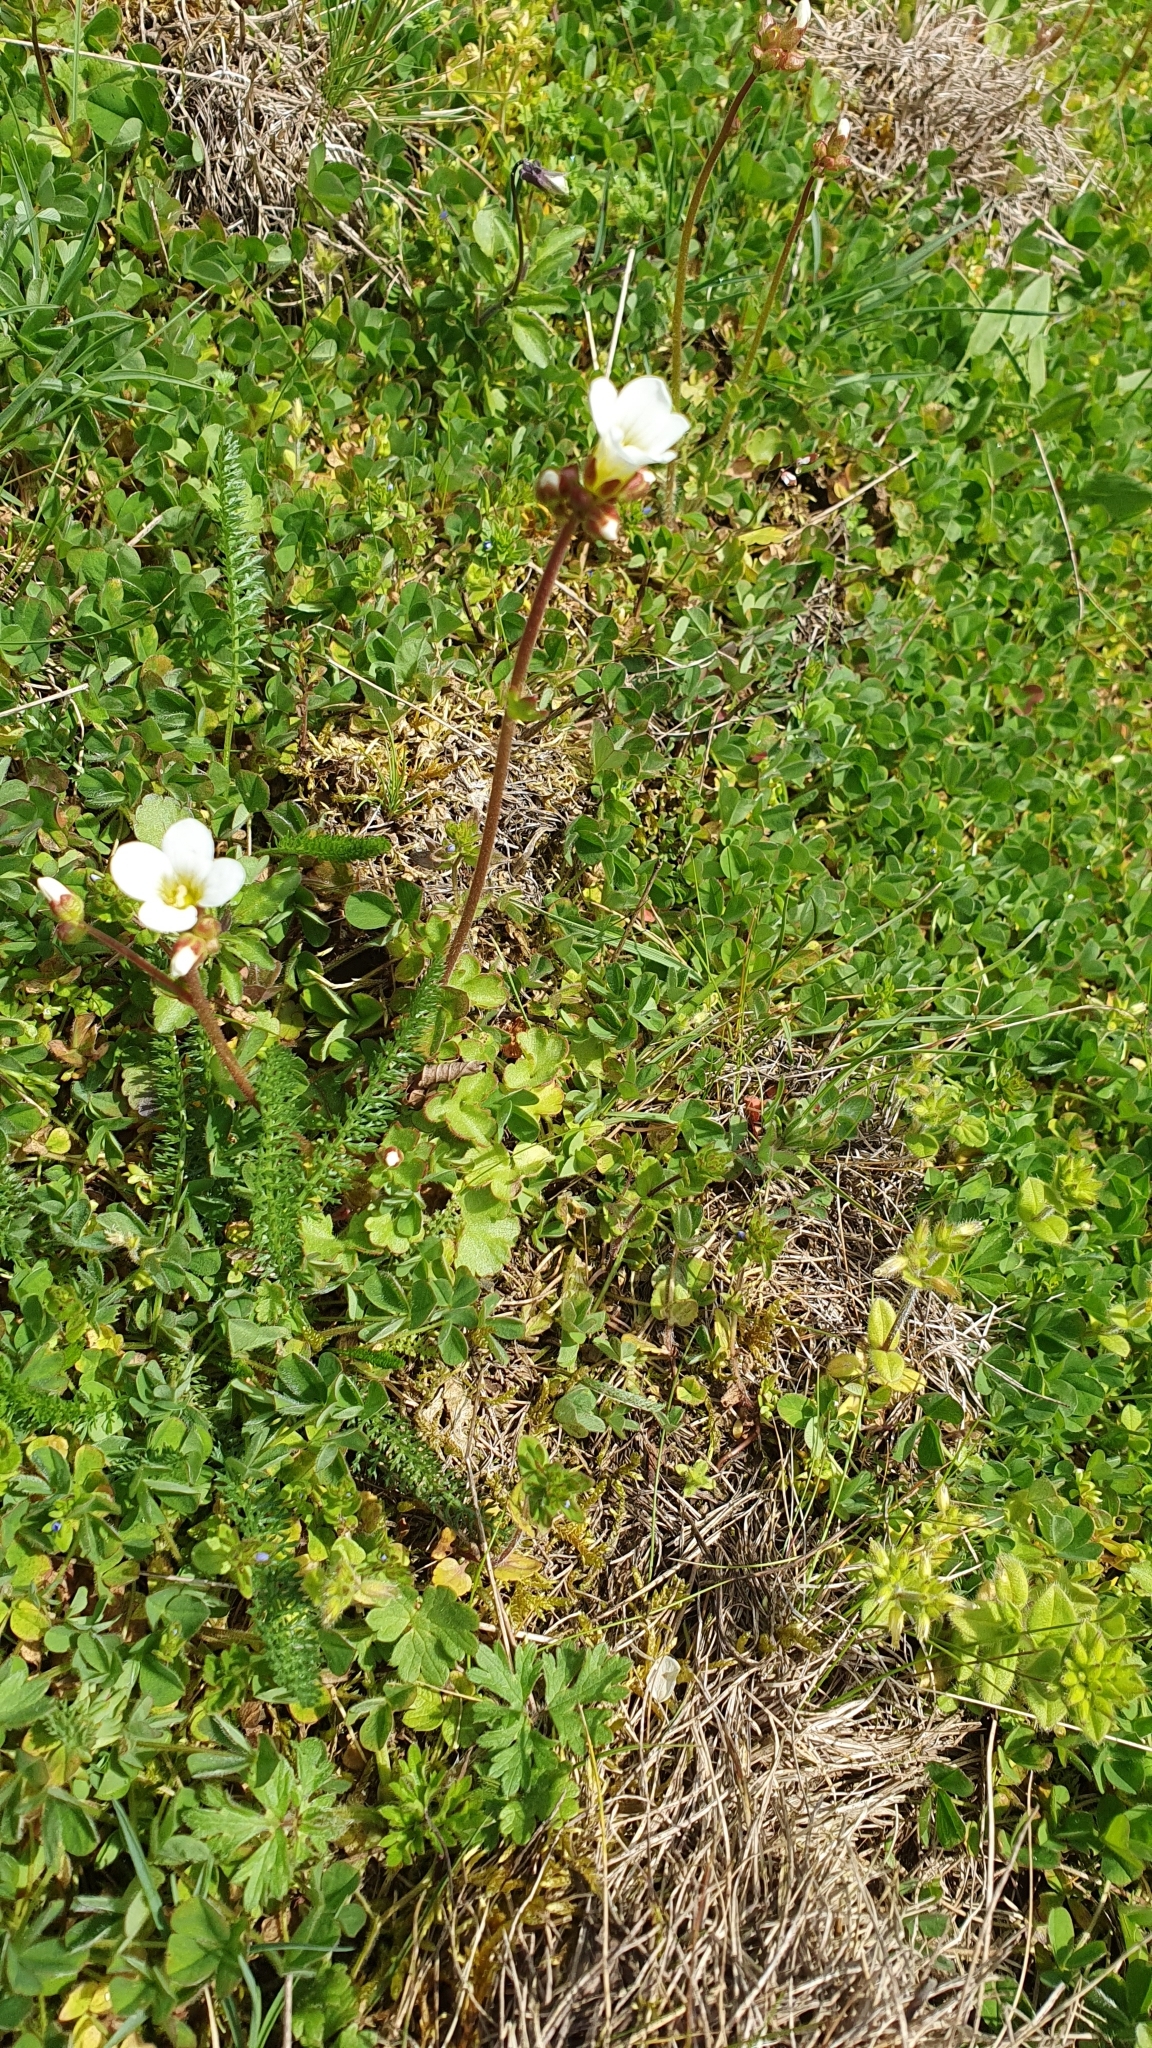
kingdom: Plantae
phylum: Tracheophyta
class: Magnoliopsida
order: Saxifragales
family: Saxifragaceae
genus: Saxifraga
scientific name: Saxifraga granulata
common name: Meadow saxifrage
